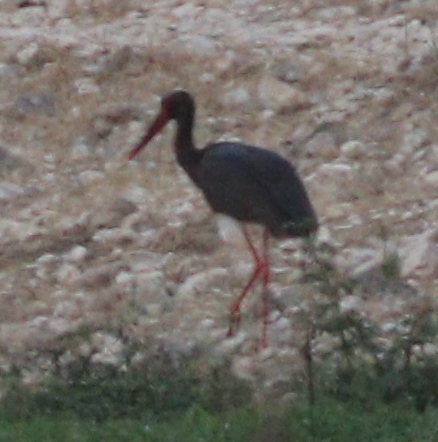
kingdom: Animalia
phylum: Chordata
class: Aves
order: Ciconiiformes
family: Ciconiidae
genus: Ciconia
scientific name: Ciconia nigra
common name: Black stork
